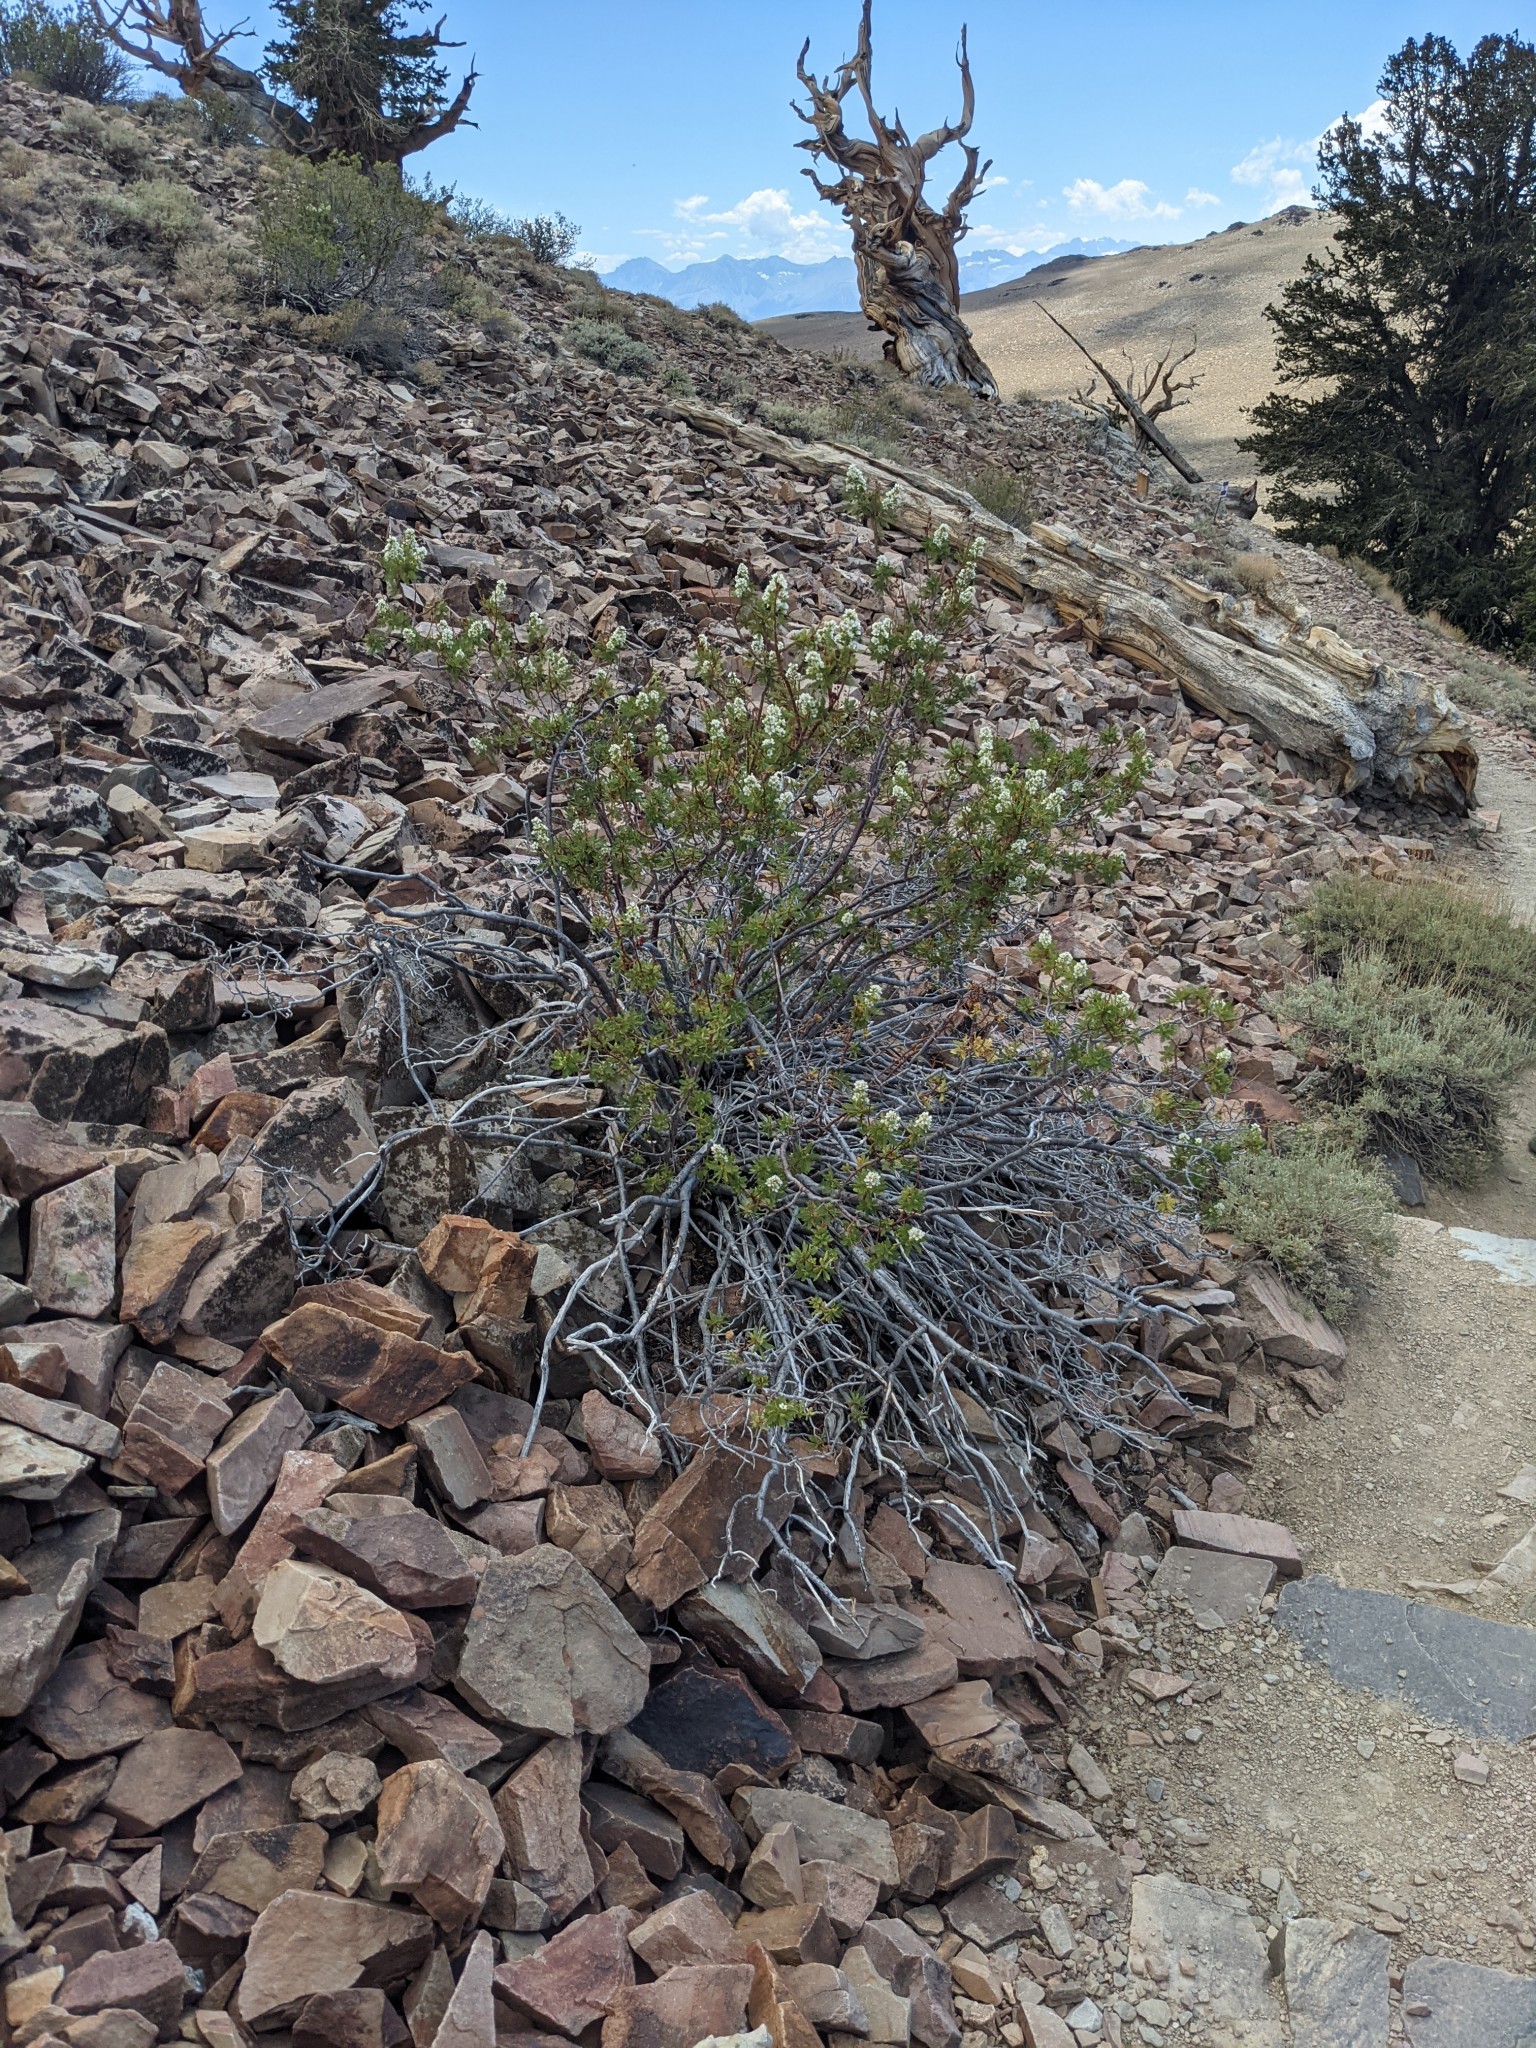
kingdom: Plantae
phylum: Tracheophyta
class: Magnoliopsida
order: Rosales
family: Rosaceae
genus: Chamaebatiaria
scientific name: Chamaebatiaria millefolium
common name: Fernbush
